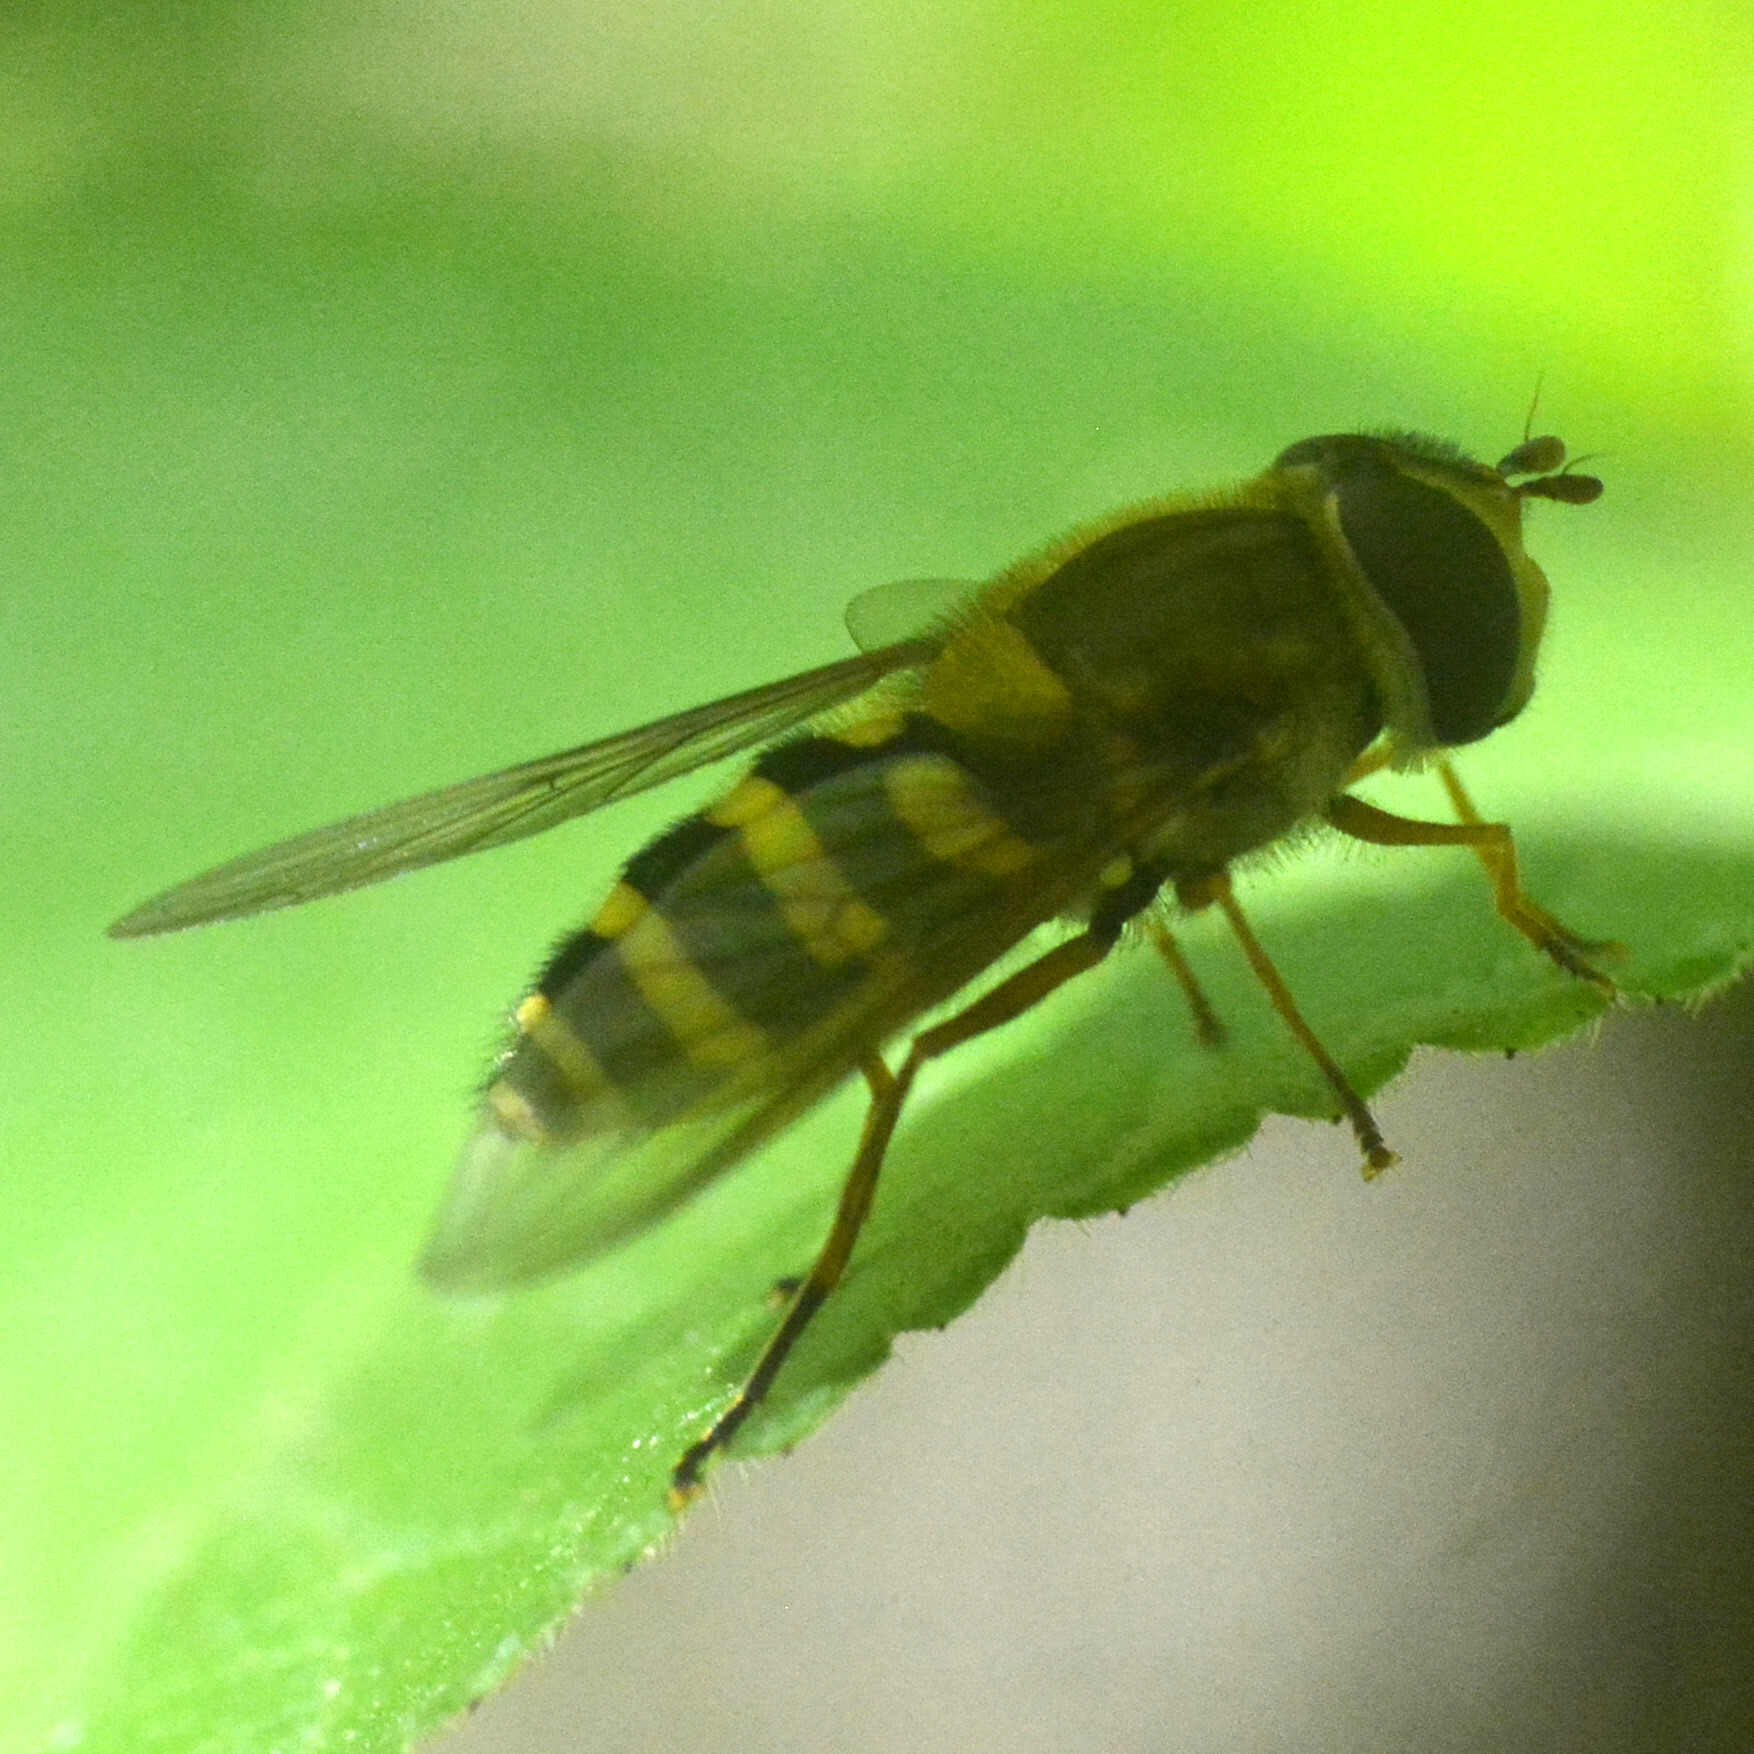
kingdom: Animalia
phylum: Arthropoda
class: Insecta
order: Diptera
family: Syrphidae
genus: Syrphus
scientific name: Syrphus ribesii
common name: Common flower fly
